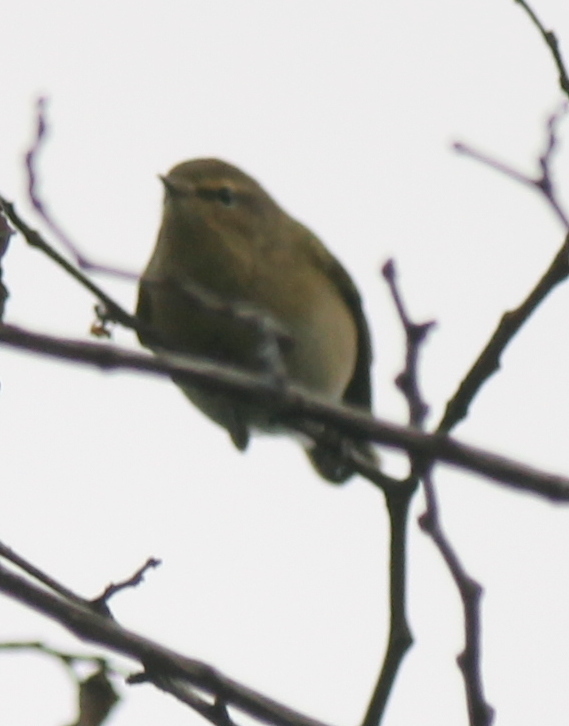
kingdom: Animalia
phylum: Chordata
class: Aves
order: Passeriformes
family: Phylloscopidae
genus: Phylloscopus
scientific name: Phylloscopus collybita
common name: Common chiffchaff
